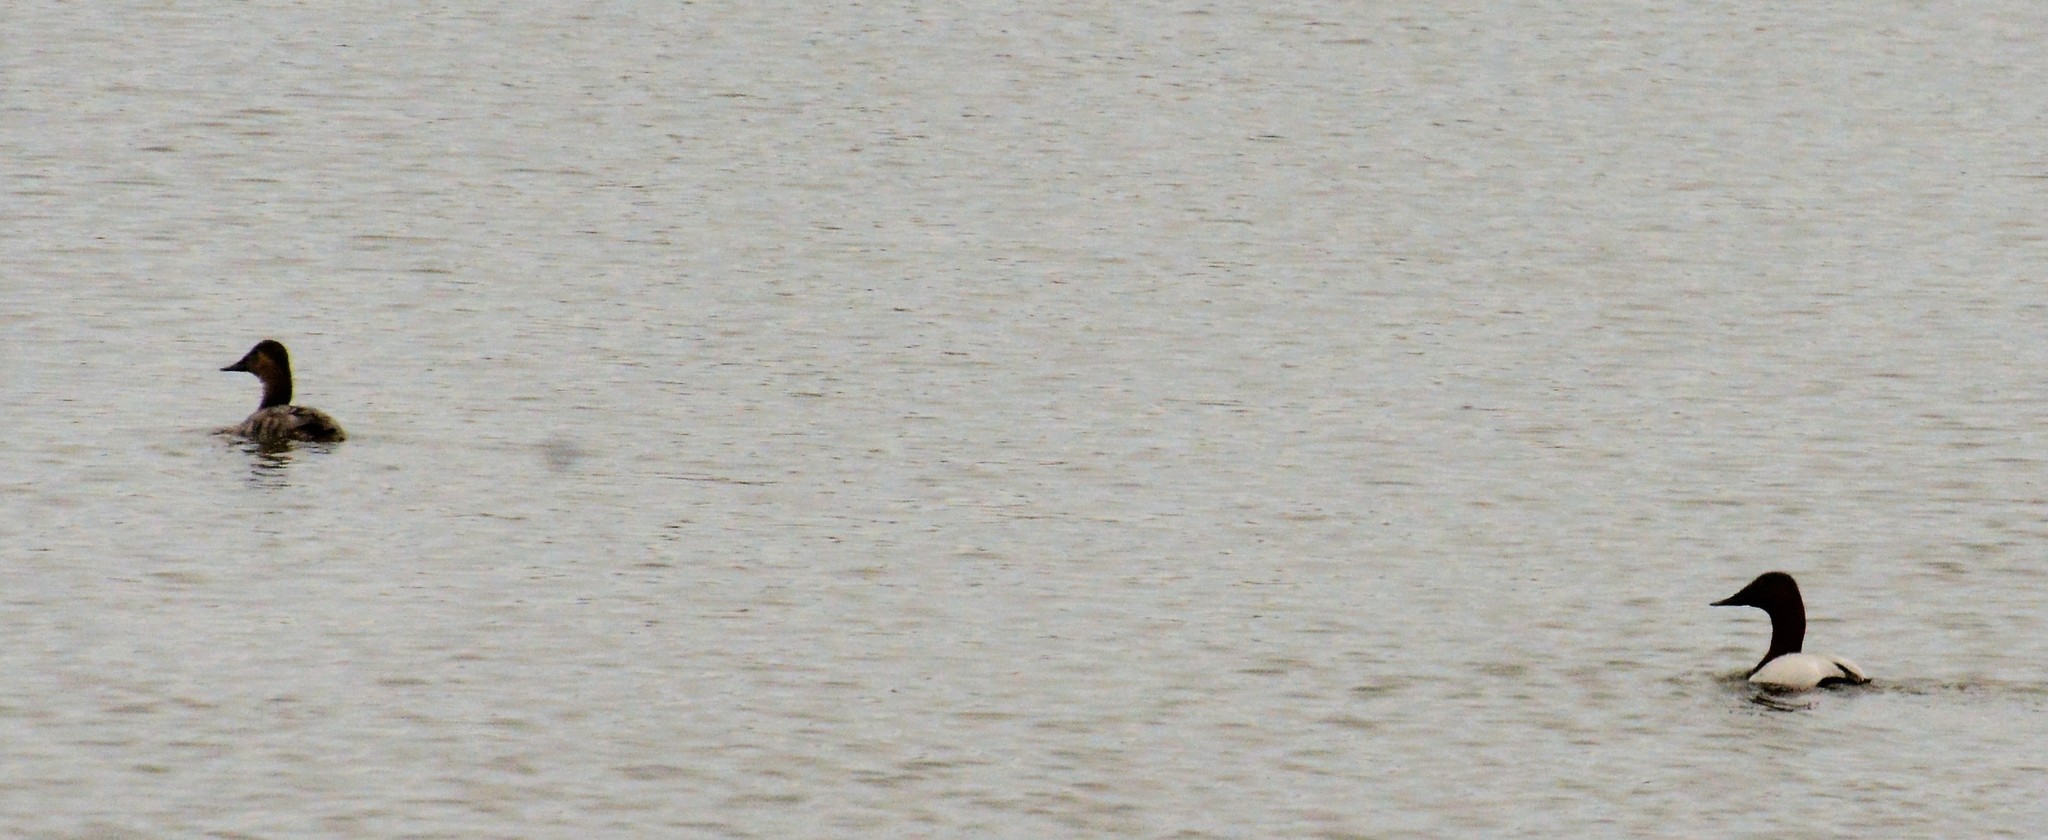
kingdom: Animalia
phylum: Chordata
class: Aves
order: Anseriformes
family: Anatidae
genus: Aythya
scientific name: Aythya valisineria
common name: Canvasback
